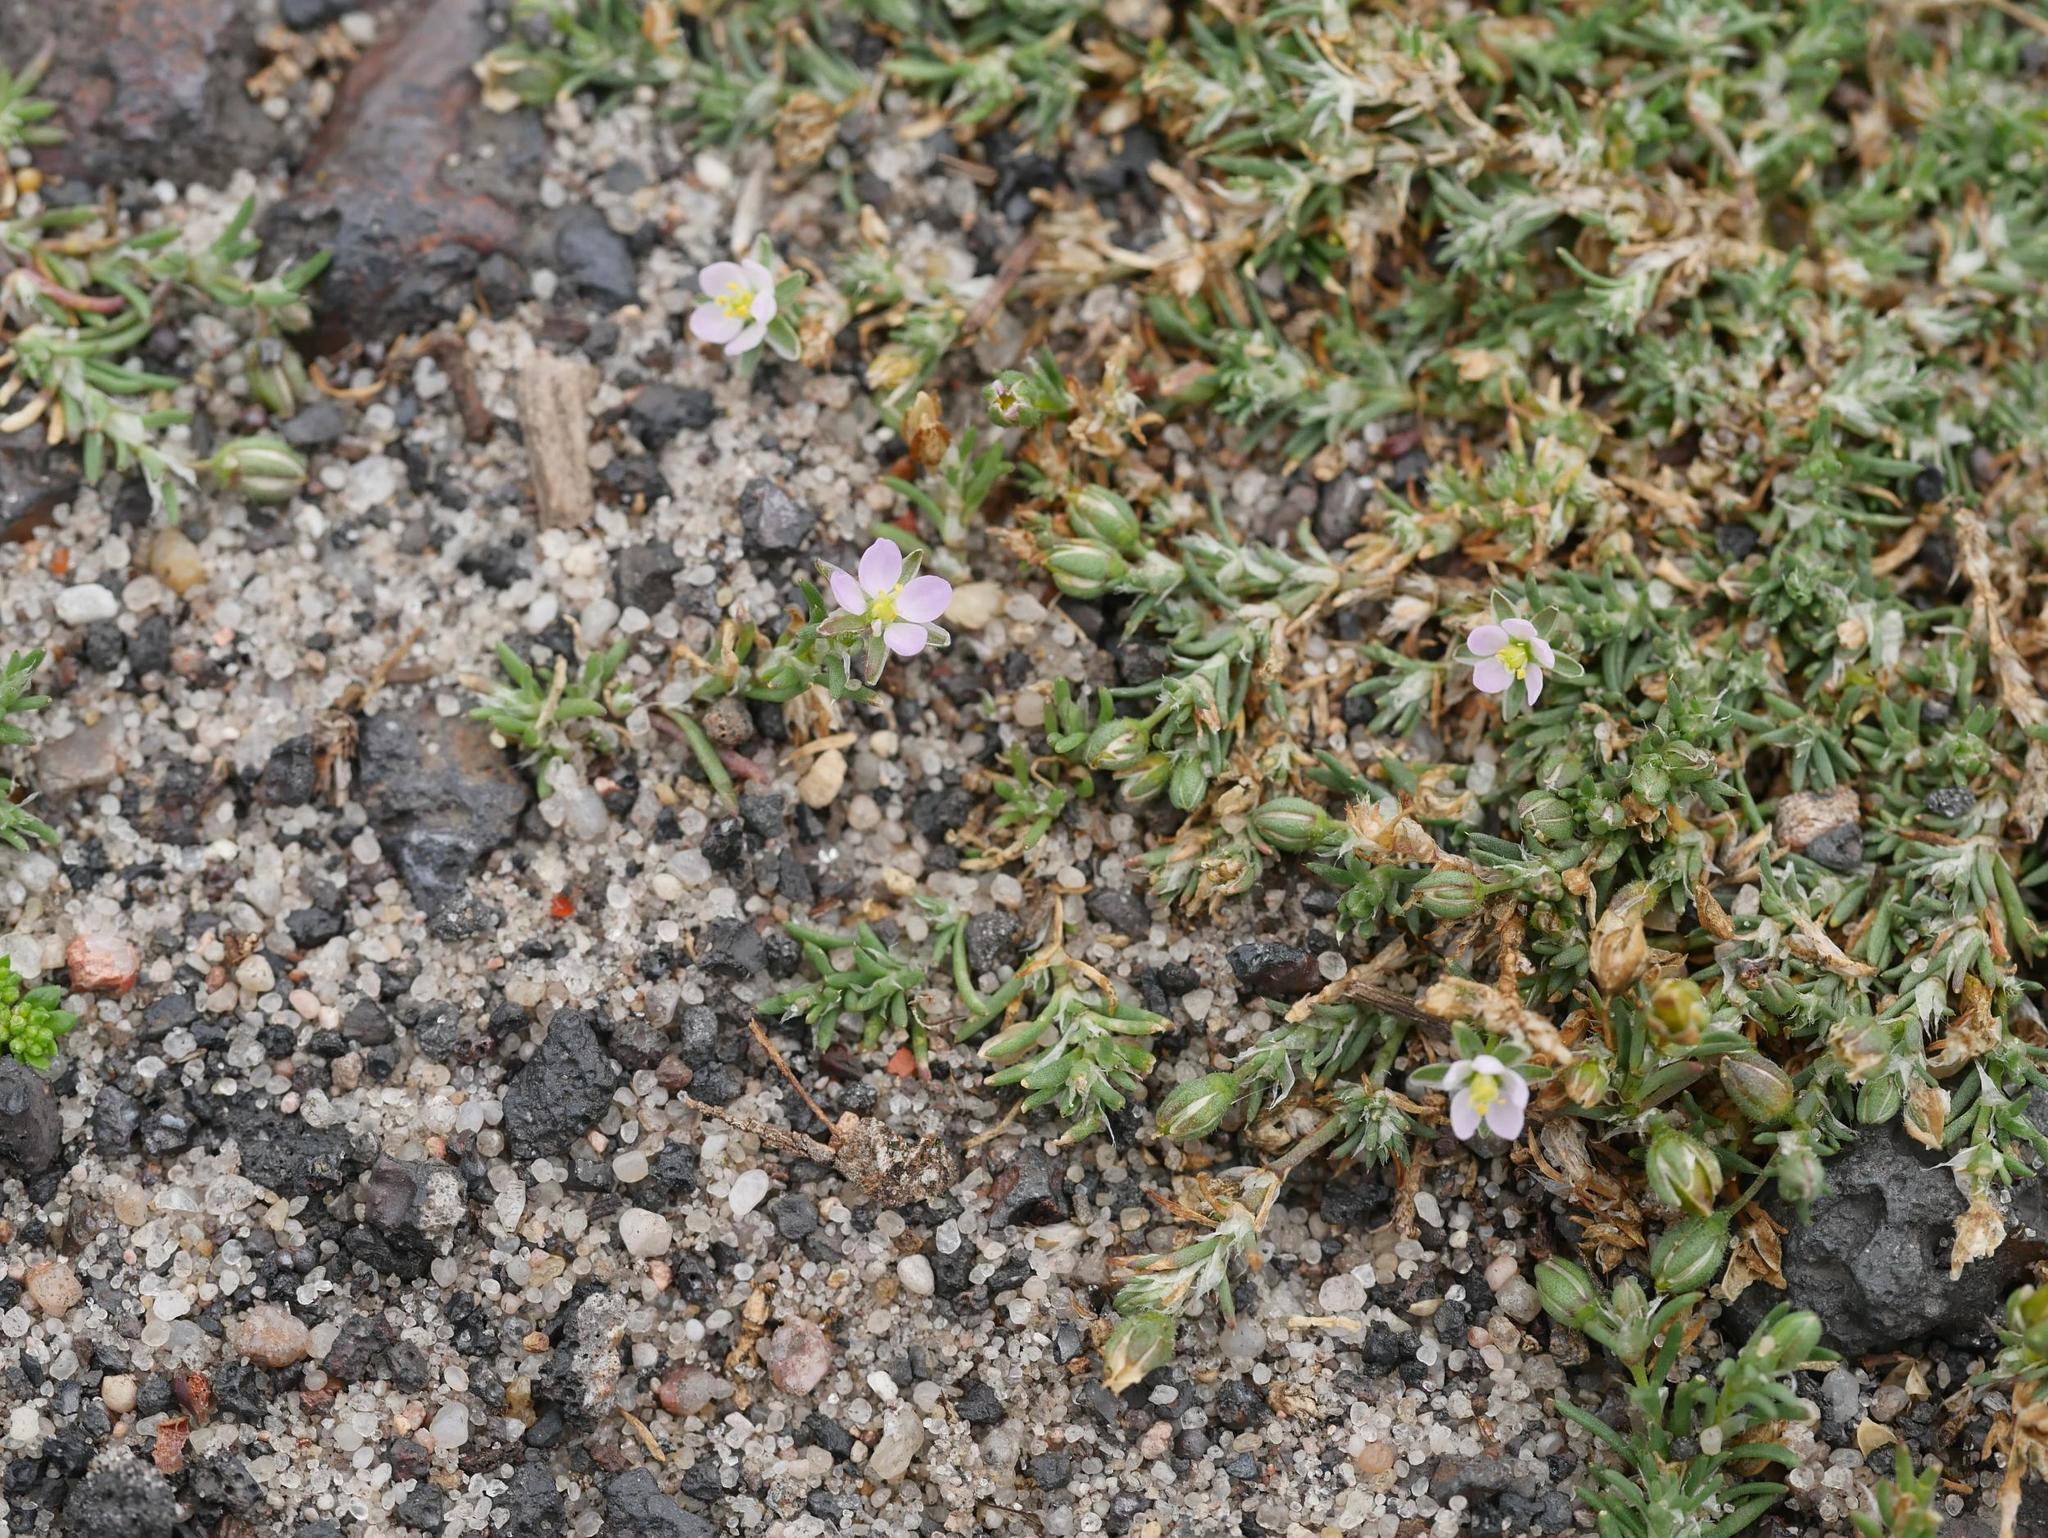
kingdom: Plantae
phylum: Tracheophyta
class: Magnoliopsida
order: Caryophyllales
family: Caryophyllaceae
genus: Spergularia
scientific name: Spergularia rubra
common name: Red sand-spurrey
